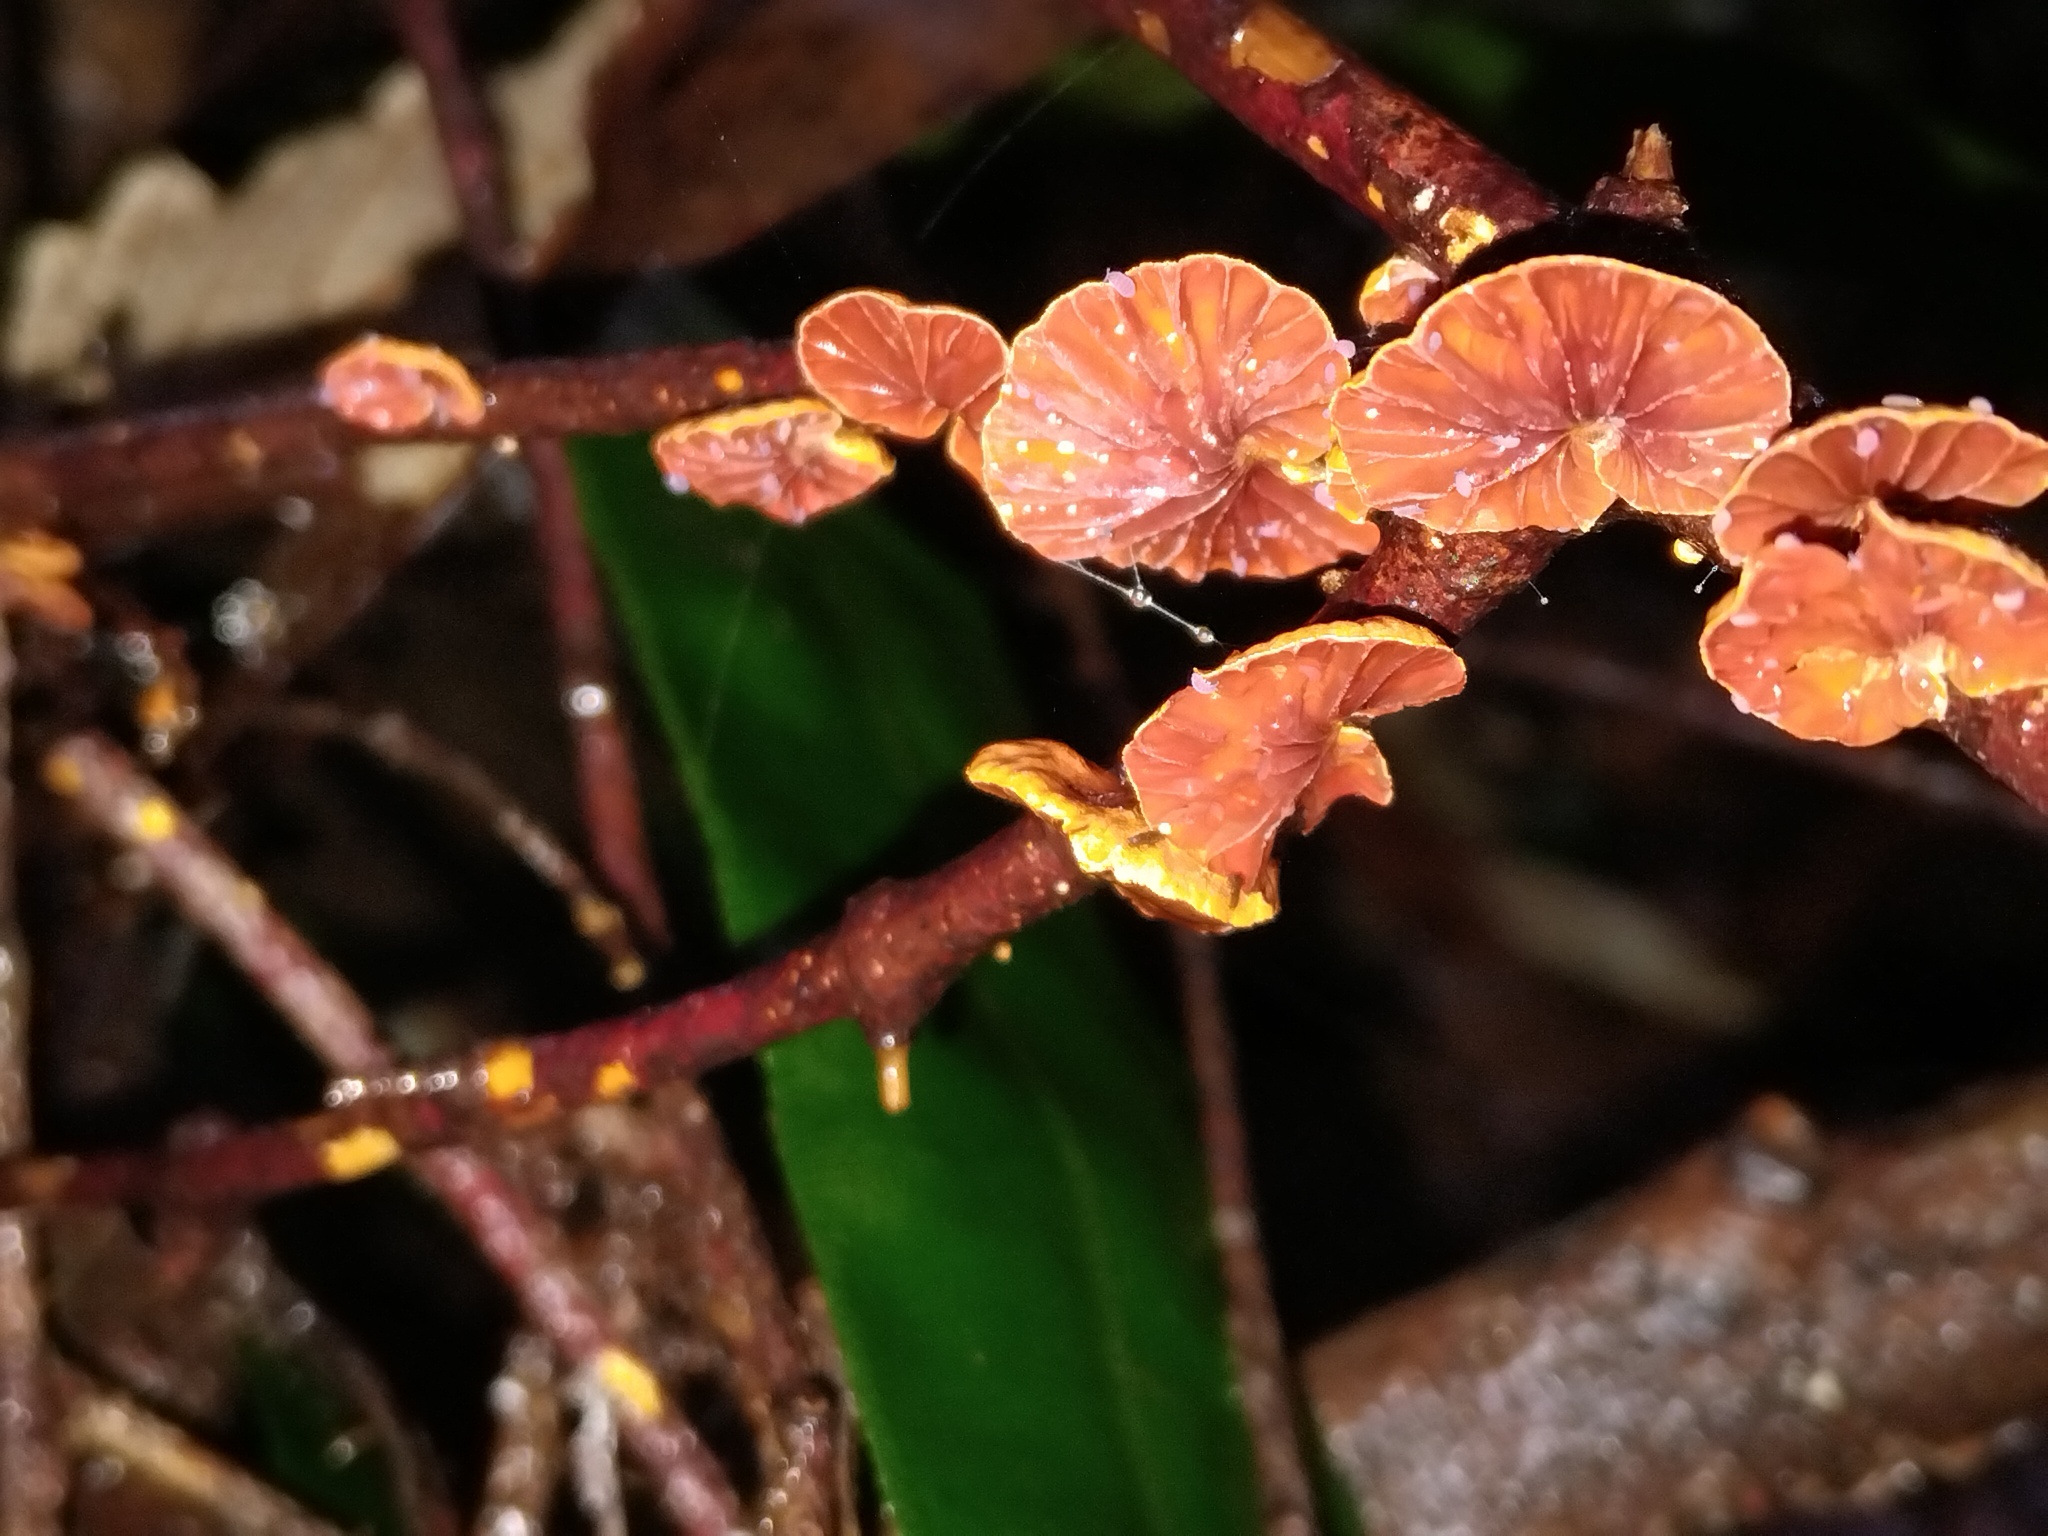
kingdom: Fungi
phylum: Basidiomycota
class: Agaricomycetes
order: Agaricales
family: Omphalotaceae
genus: Anthracophyllum
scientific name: Anthracophyllum archeri
